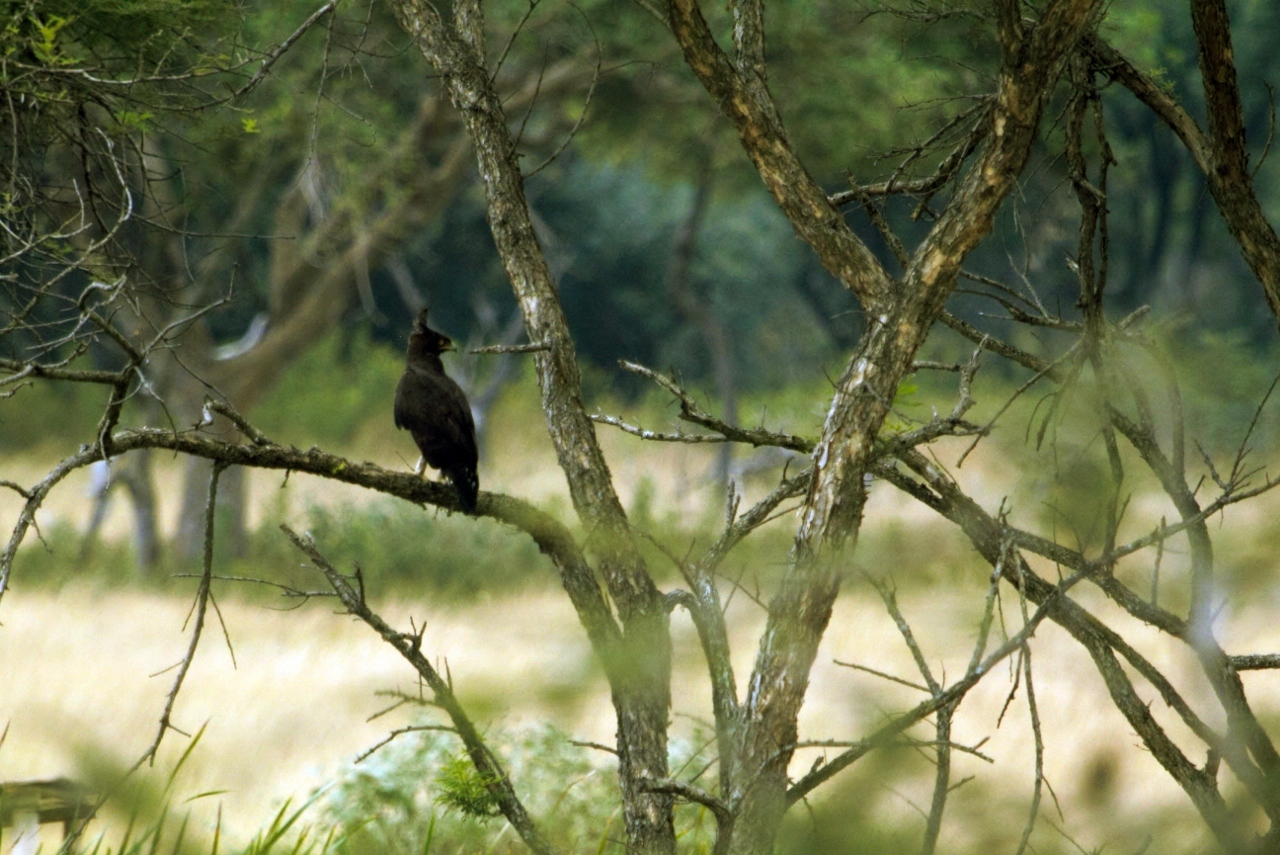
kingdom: Animalia
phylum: Chordata
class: Aves
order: Accipitriformes
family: Accipitridae
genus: Lophaetus
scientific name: Lophaetus occipitalis
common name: Long-crested eagle
